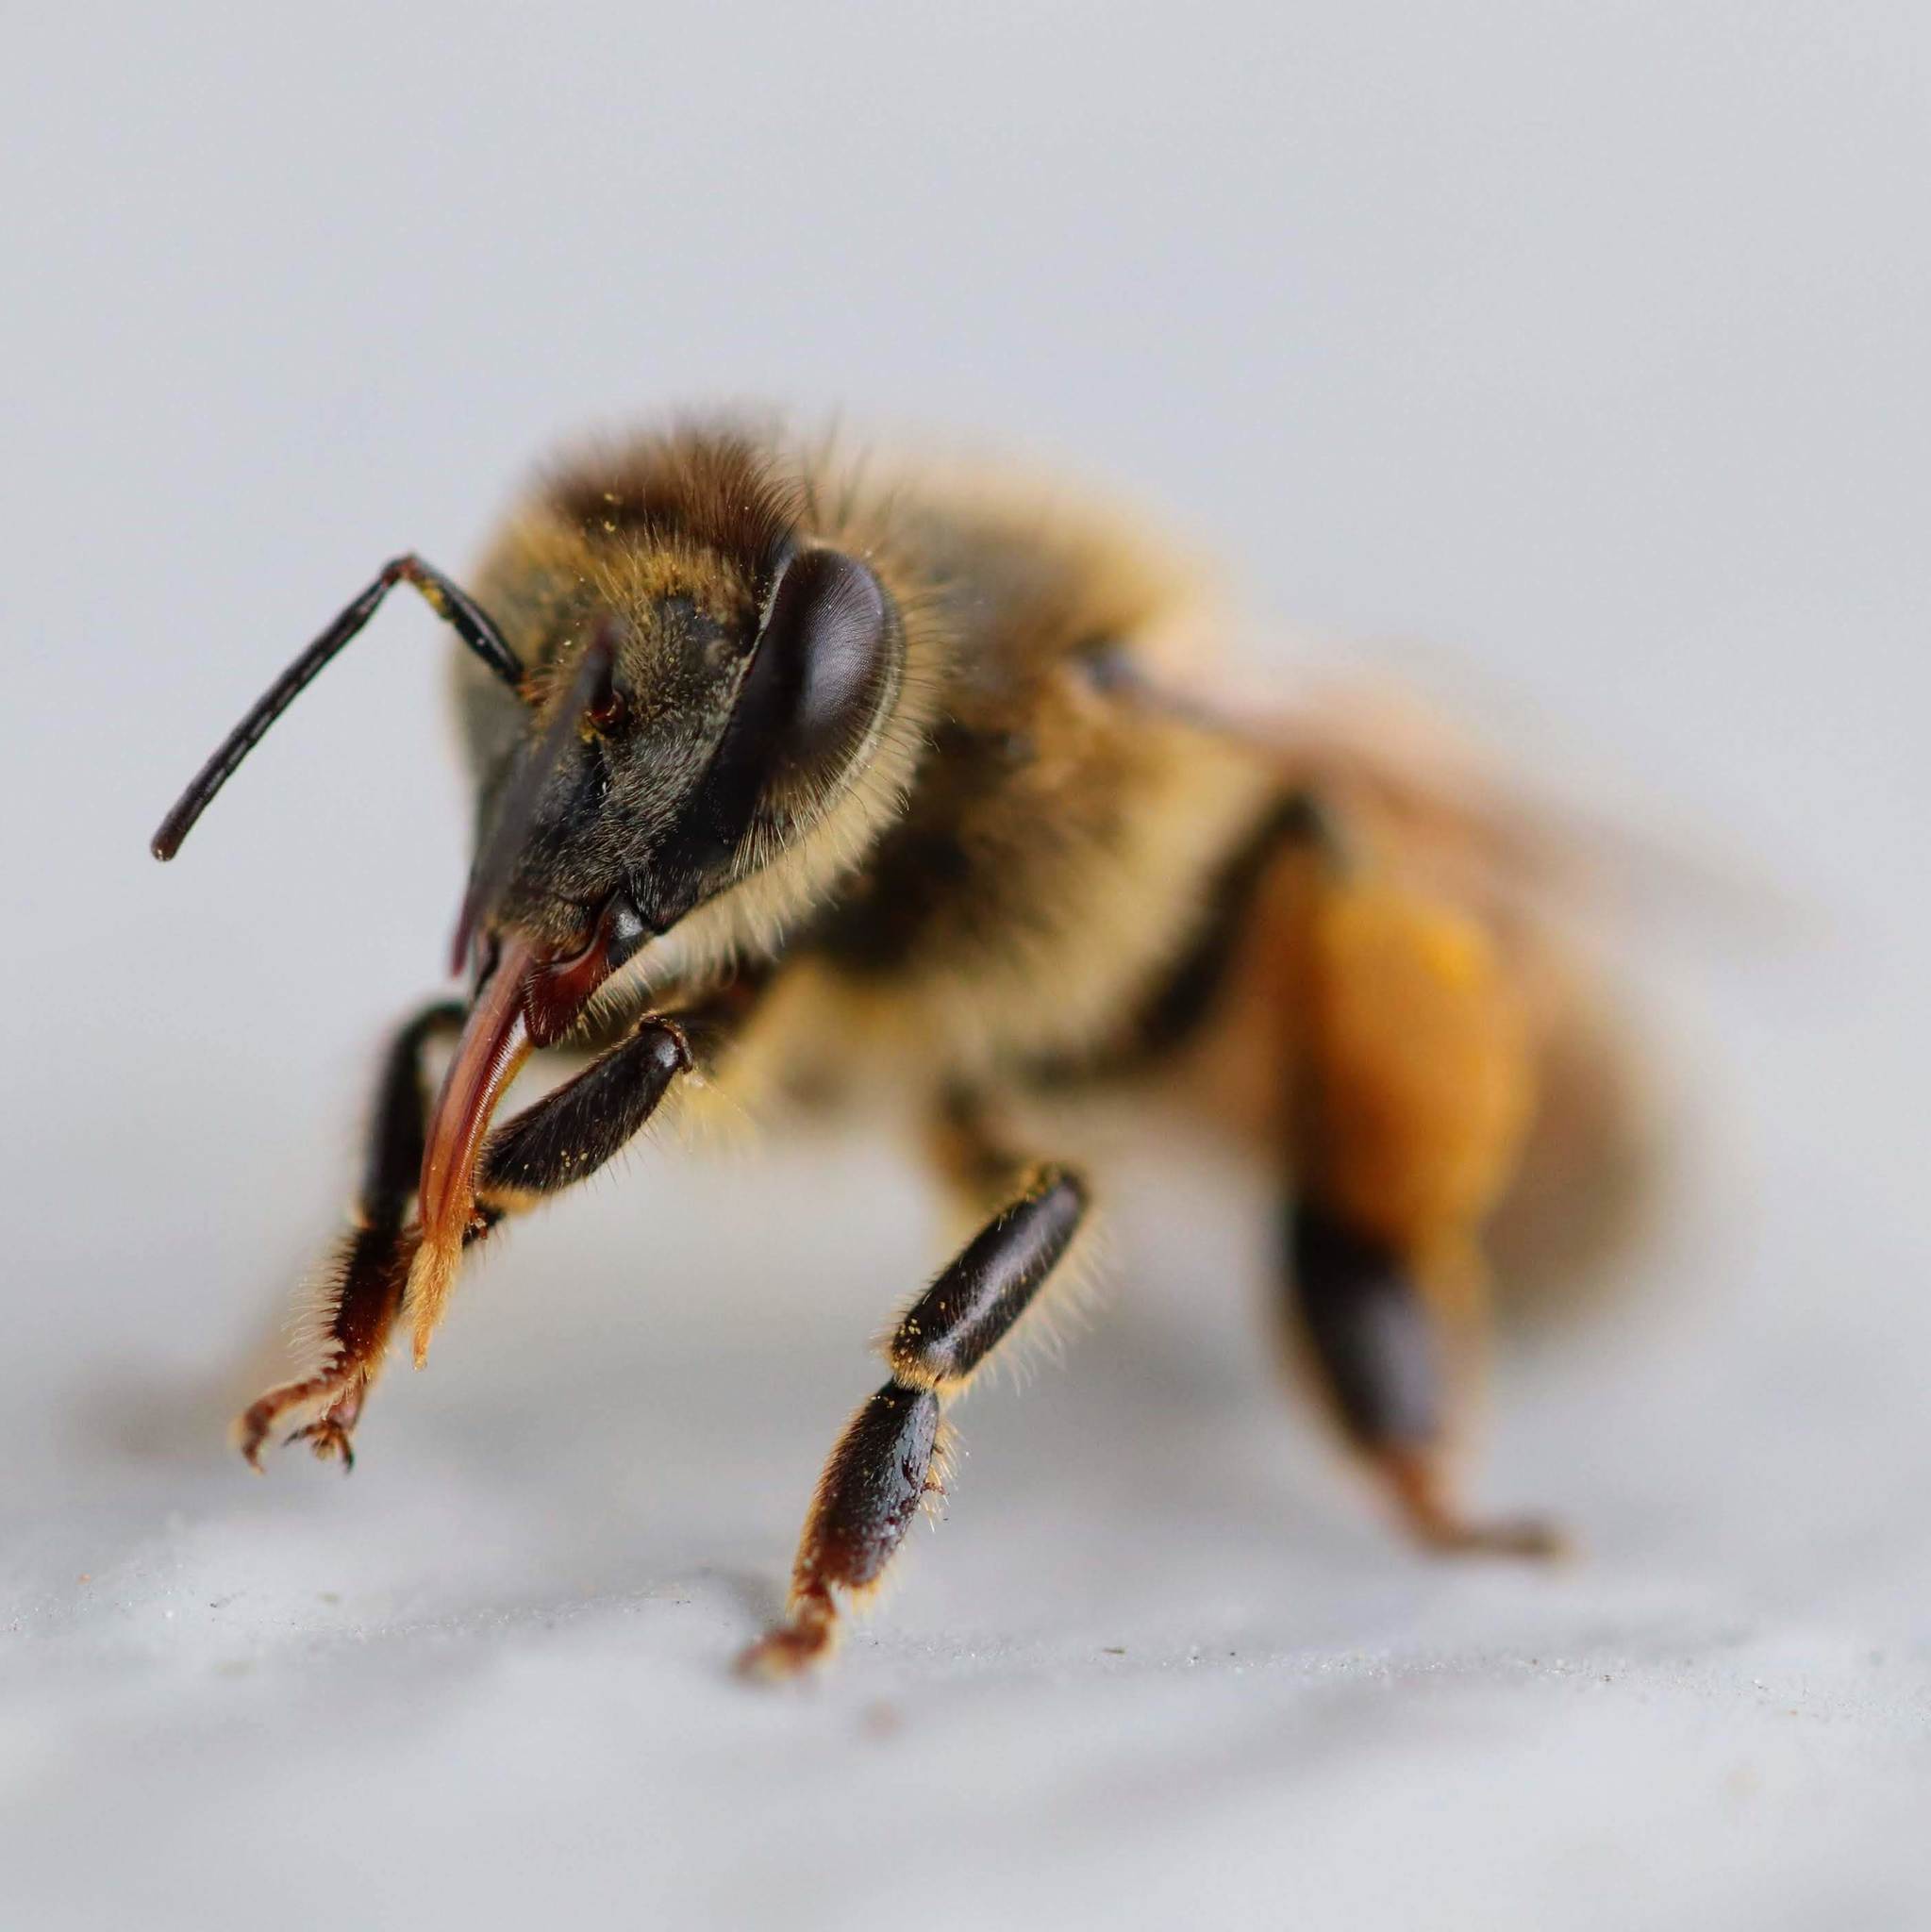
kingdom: Animalia
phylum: Arthropoda
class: Insecta
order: Hymenoptera
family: Apidae
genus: Apis
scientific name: Apis mellifera
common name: Honey bee
